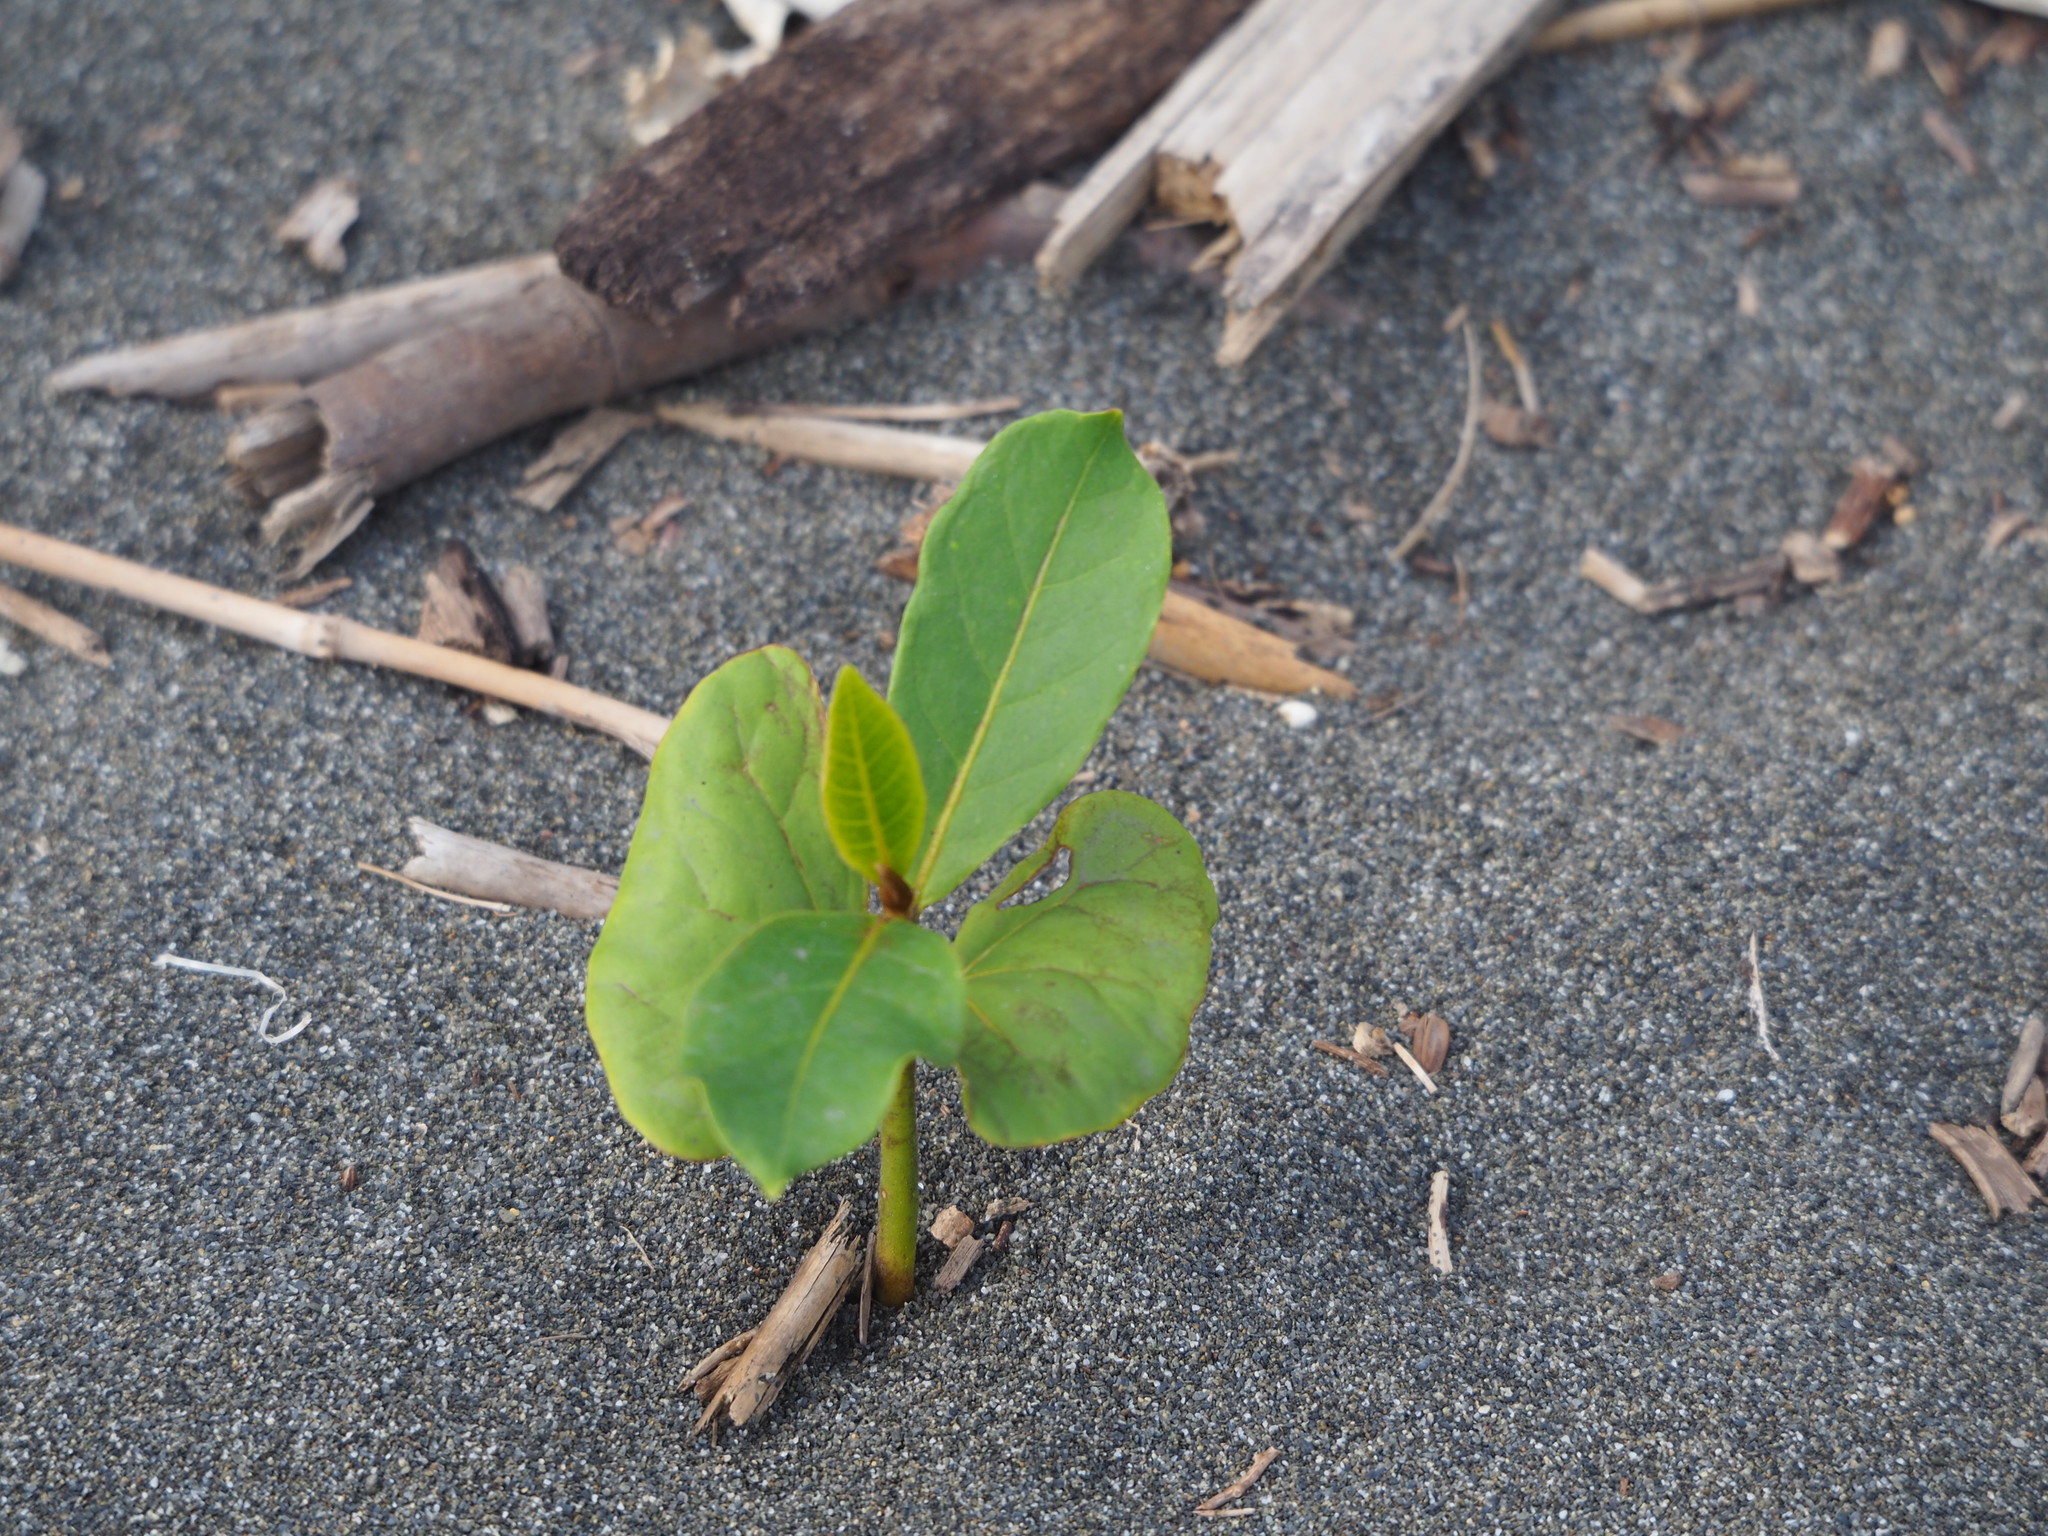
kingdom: Plantae
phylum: Tracheophyta
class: Magnoliopsida
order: Myrtales
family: Combretaceae
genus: Terminalia
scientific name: Terminalia catappa
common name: Tropical almond
